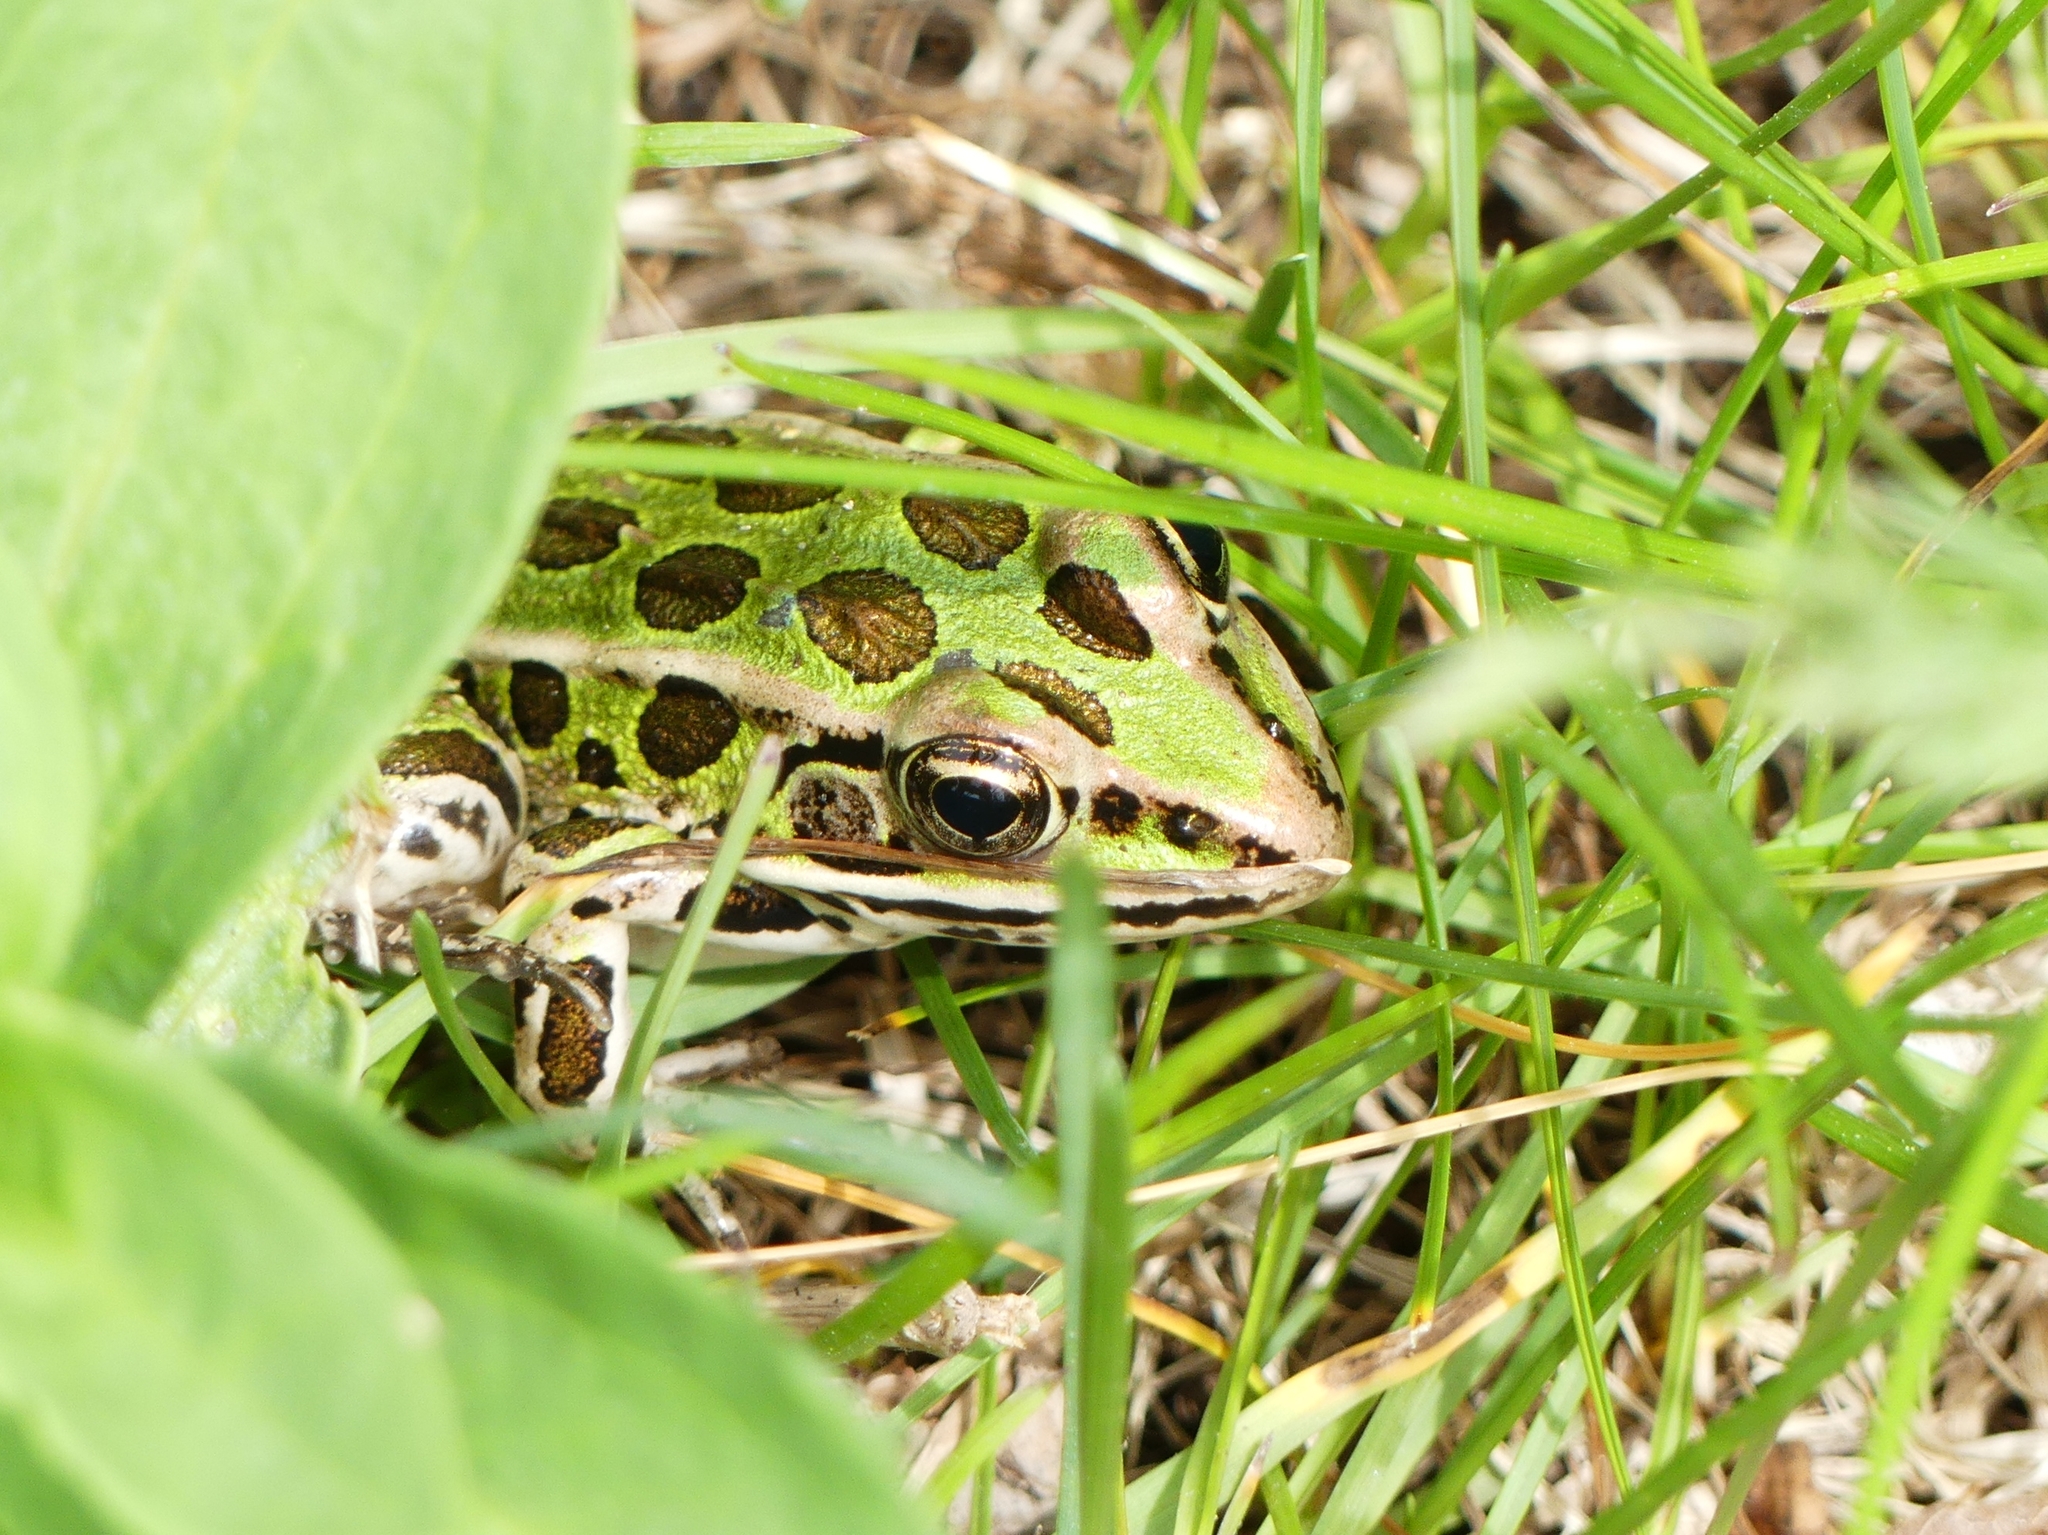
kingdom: Animalia
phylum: Chordata
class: Amphibia
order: Anura
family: Ranidae
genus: Lithobates
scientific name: Lithobates pipiens
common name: Northern leopard frog
